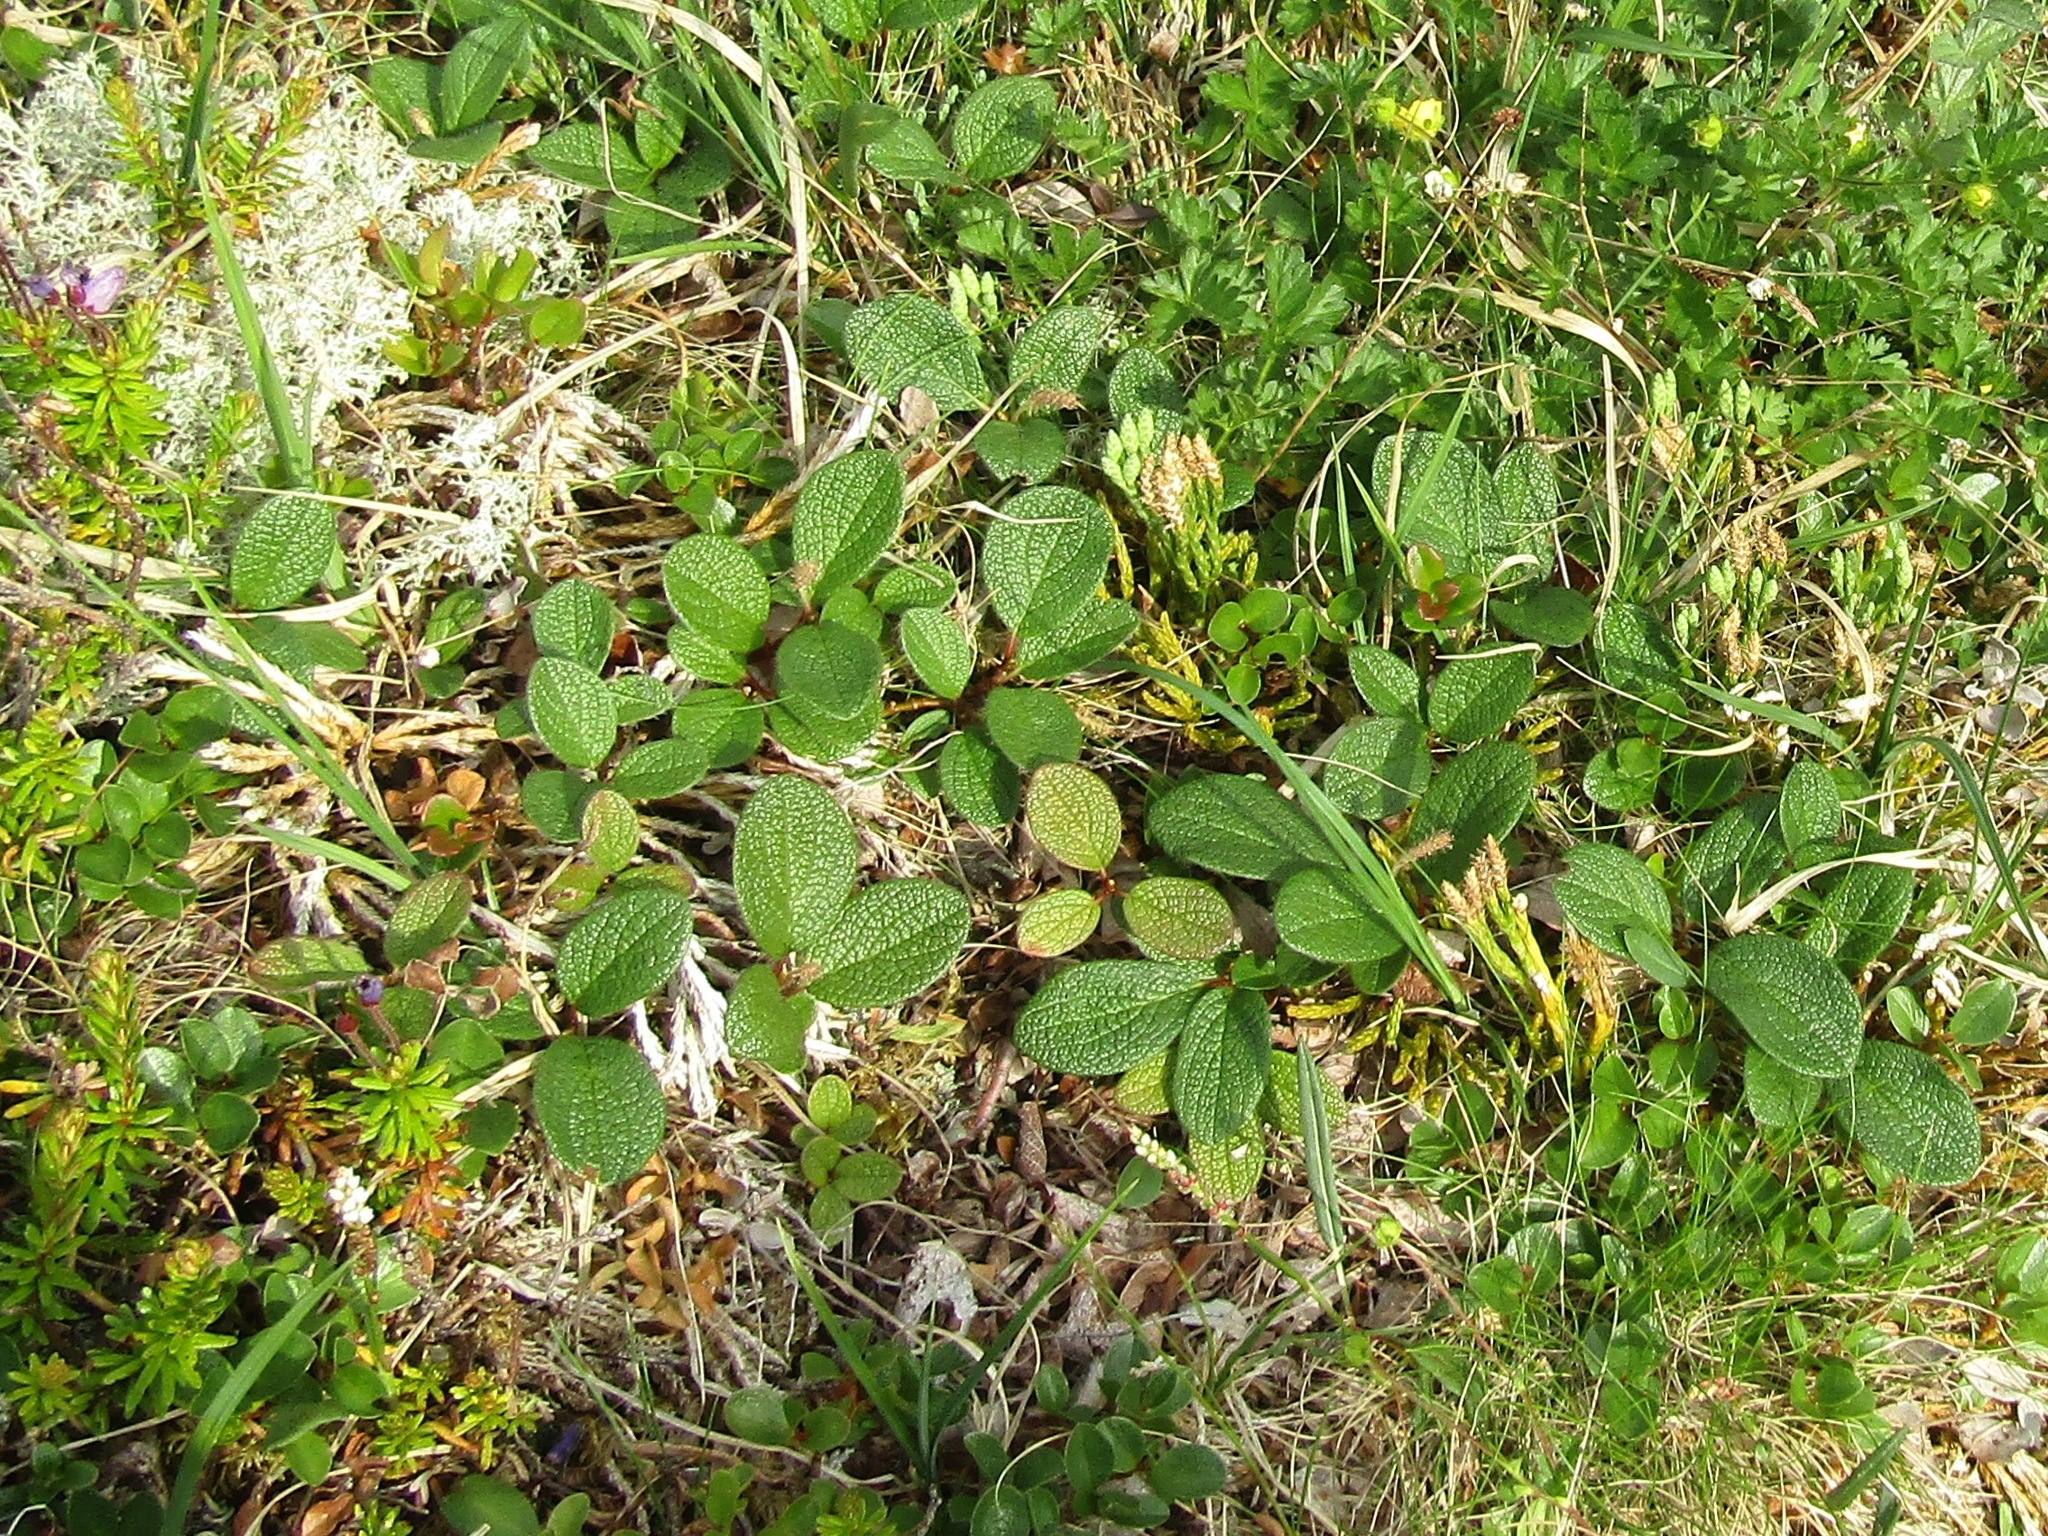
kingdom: Plantae
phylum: Tracheophyta
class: Magnoliopsida
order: Malpighiales
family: Salicaceae
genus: Salix
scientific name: Salix reticulata
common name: Net-leaved willow
